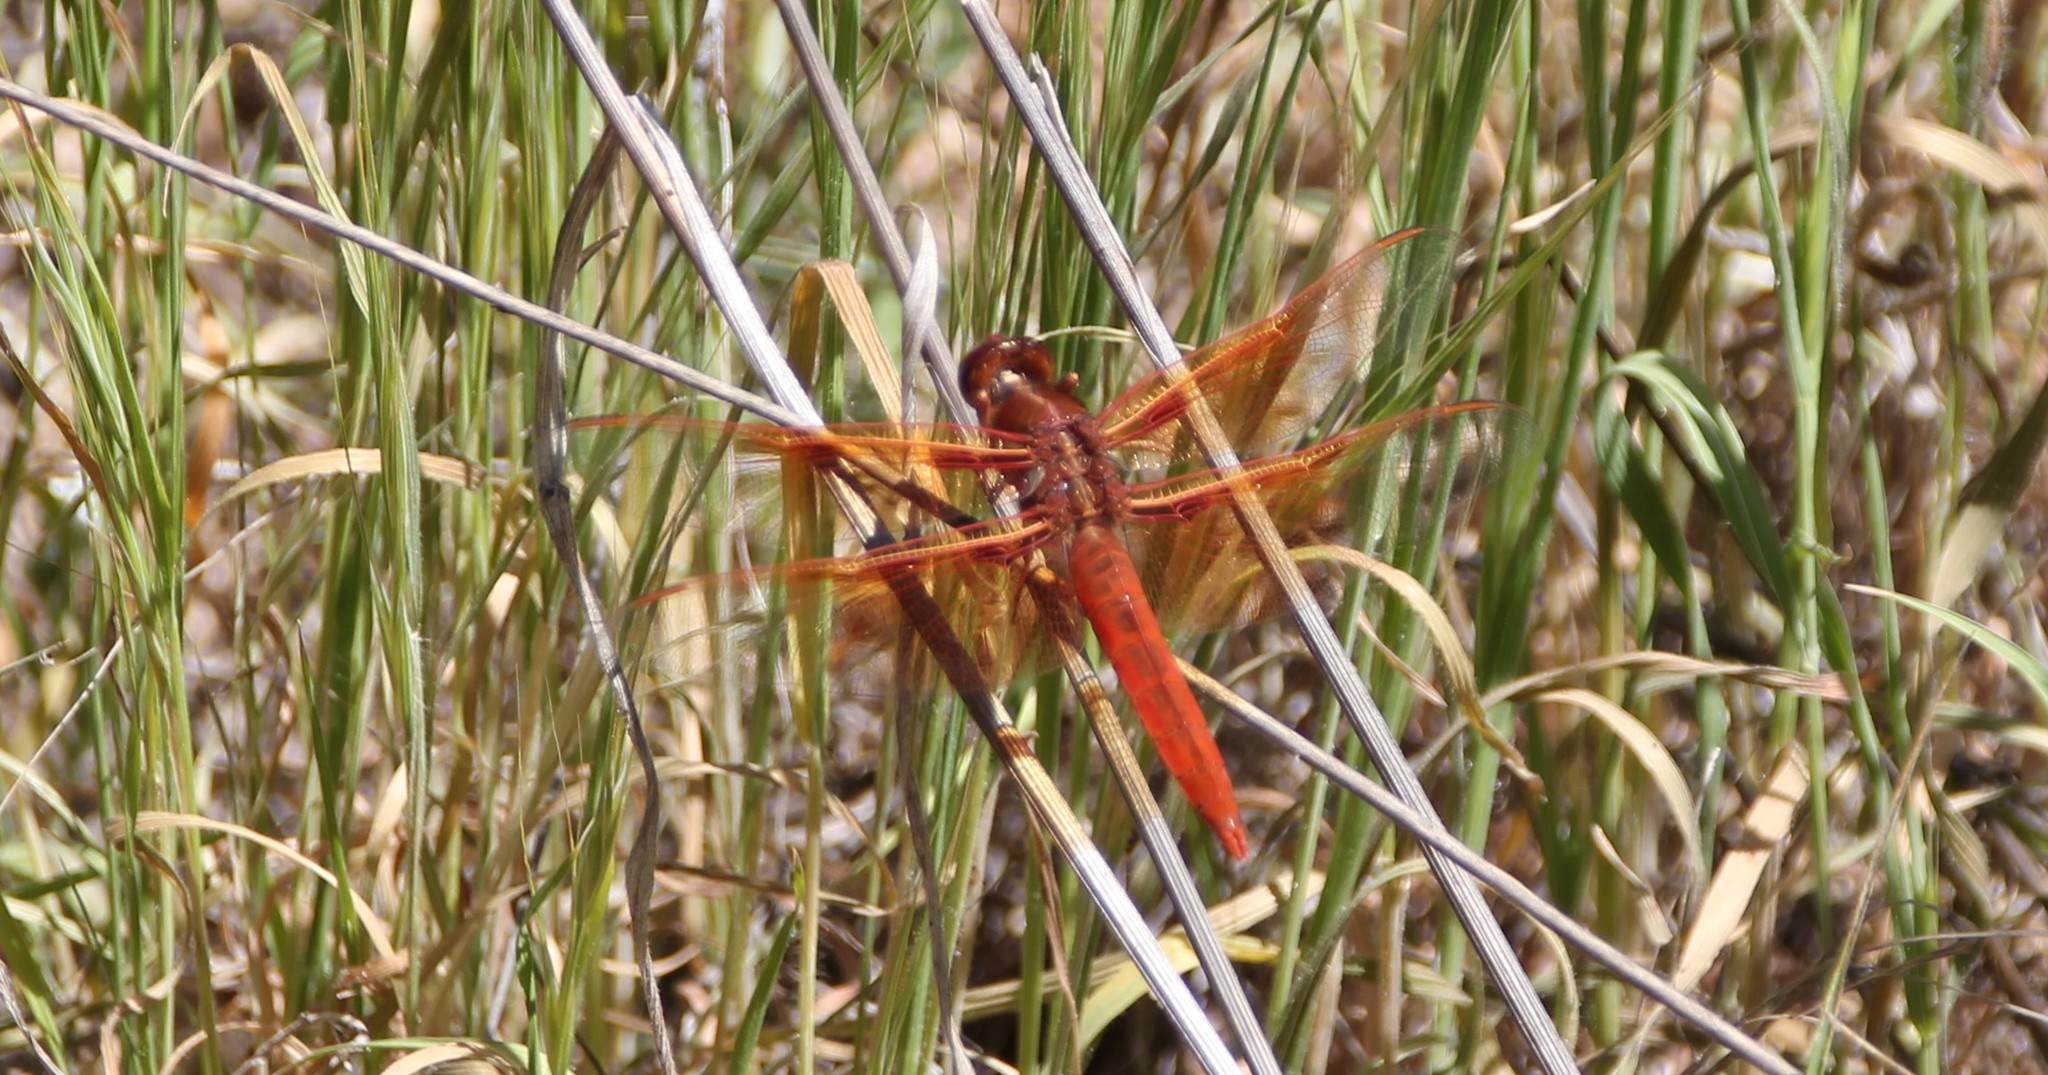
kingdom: Animalia
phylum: Arthropoda
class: Insecta
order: Odonata
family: Libellulidae
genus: Libellula
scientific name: Libellula saturata
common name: Flame skimmer
